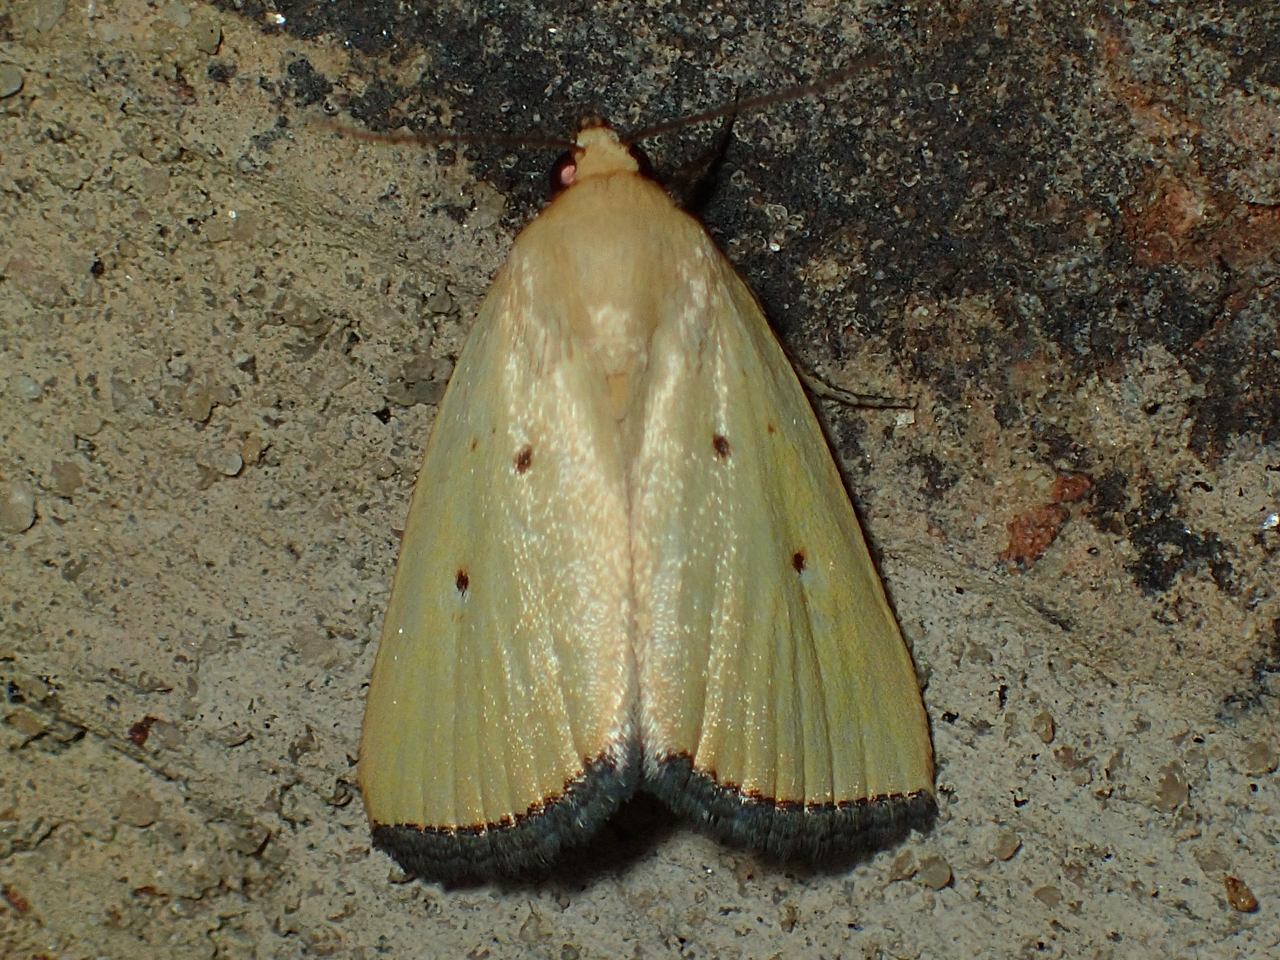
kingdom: Animalia
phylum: Arthropoda
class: Insecta
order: Lepidoptera
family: Noctuidae
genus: Marimatha
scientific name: Marimatha nigrofimbria
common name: Black-bordered lemon moth
